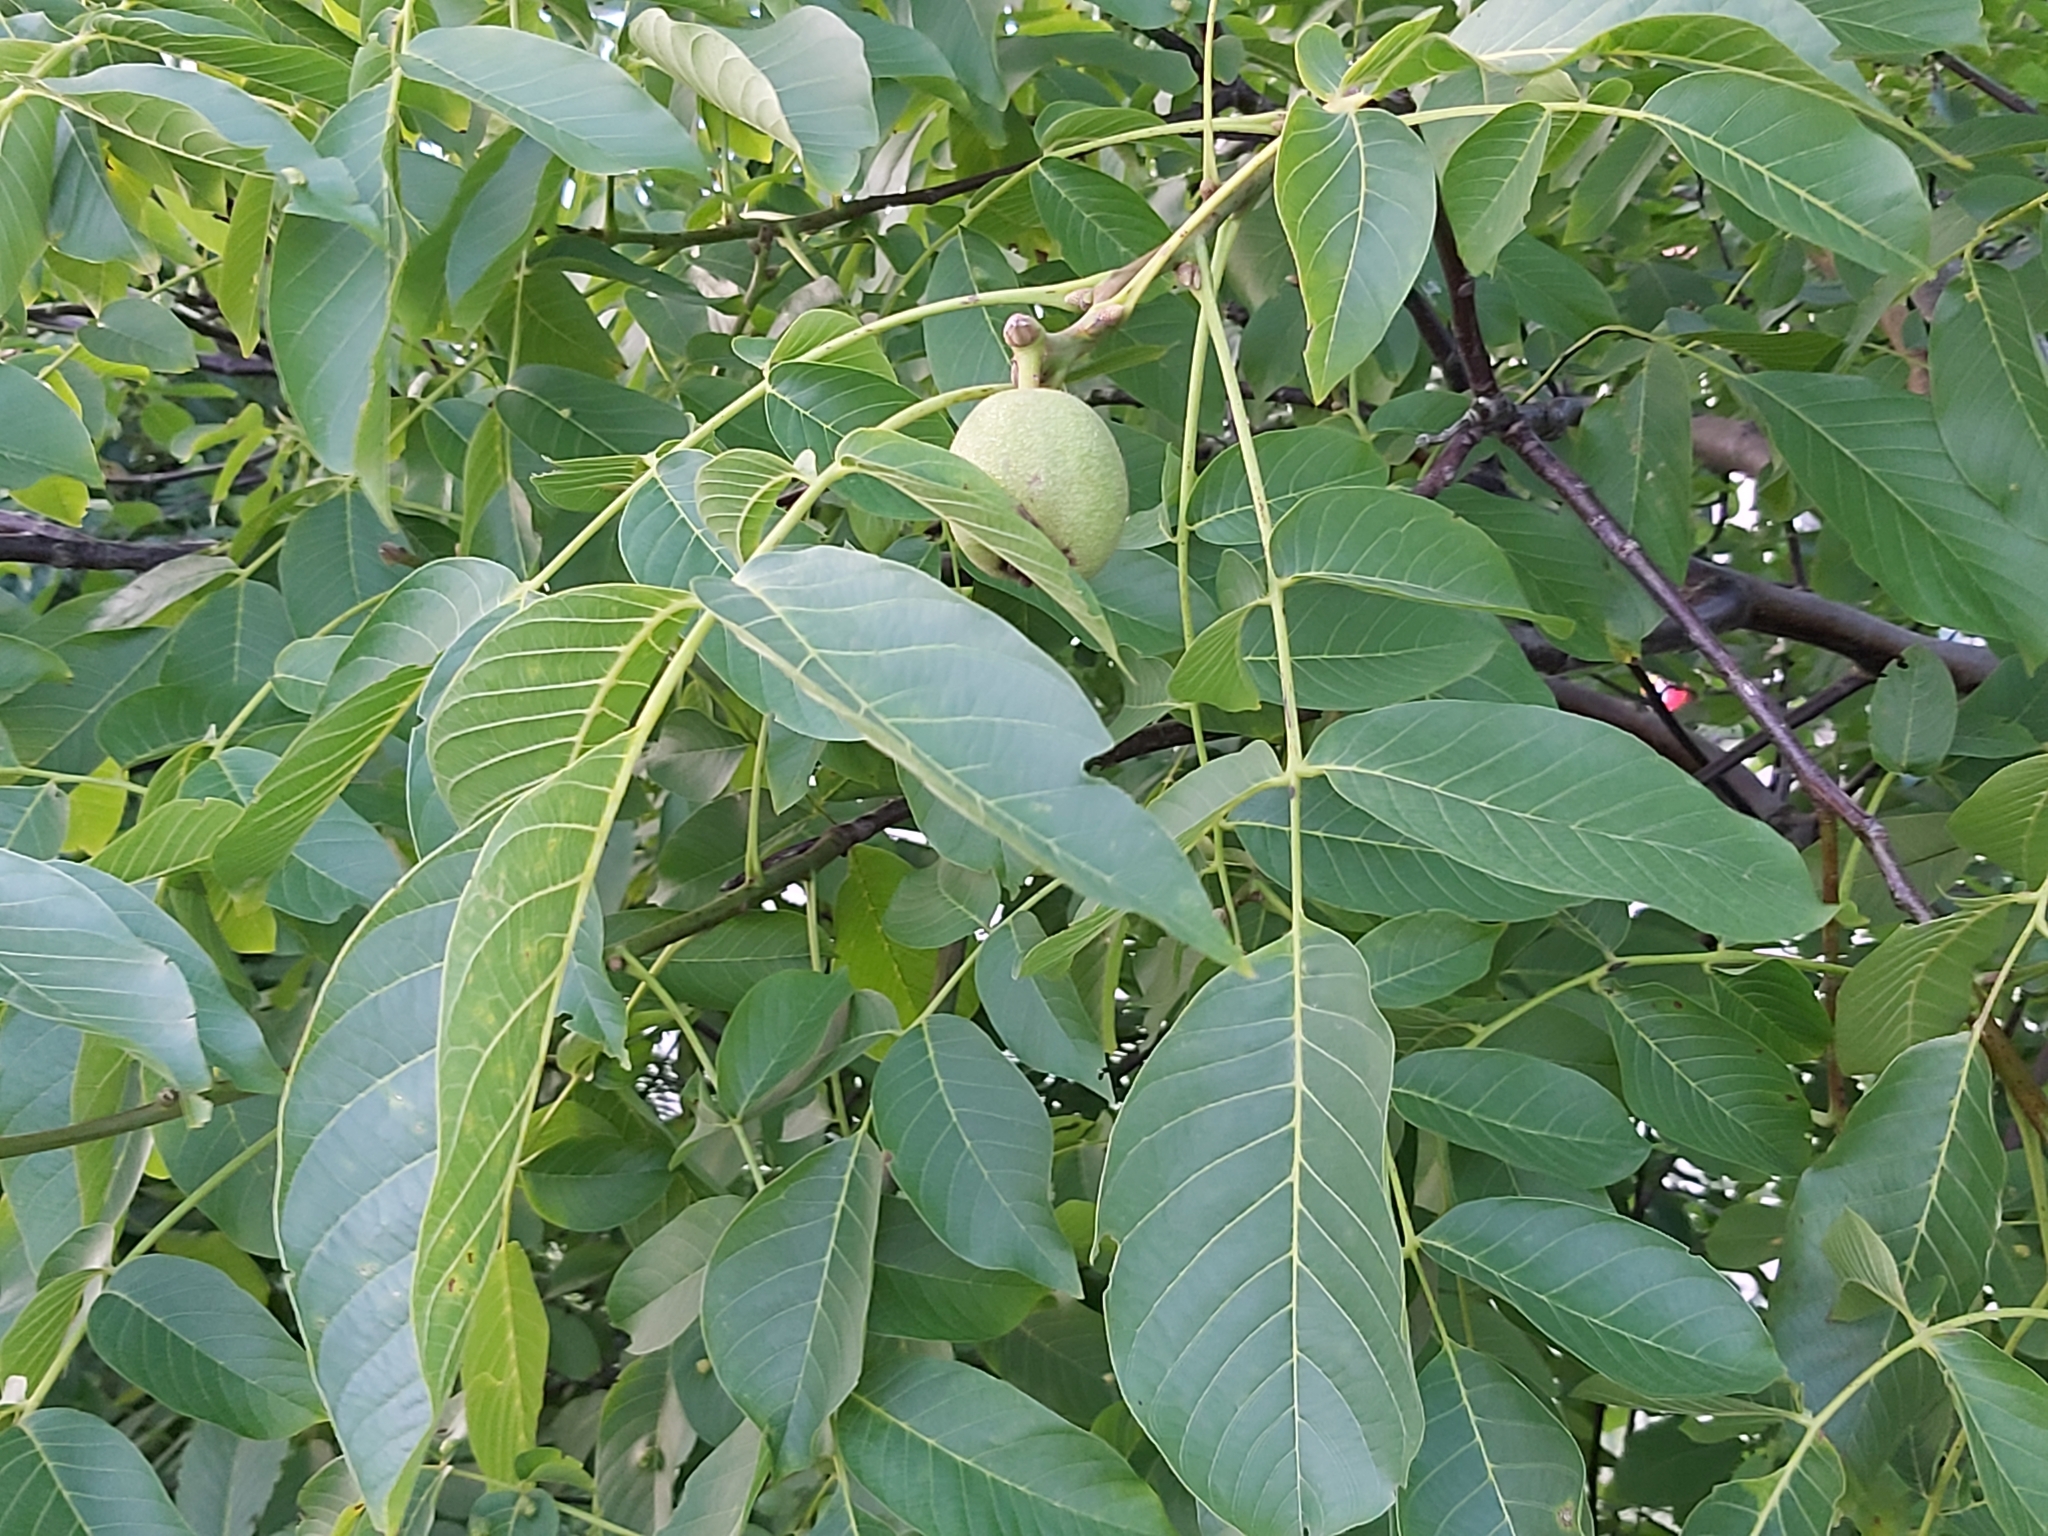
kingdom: Plantae
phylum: Tracheophyta
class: Magnoliopsida
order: Fagales
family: Juglandaceae
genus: Juglans
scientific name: Juglans regia
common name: Walnut
